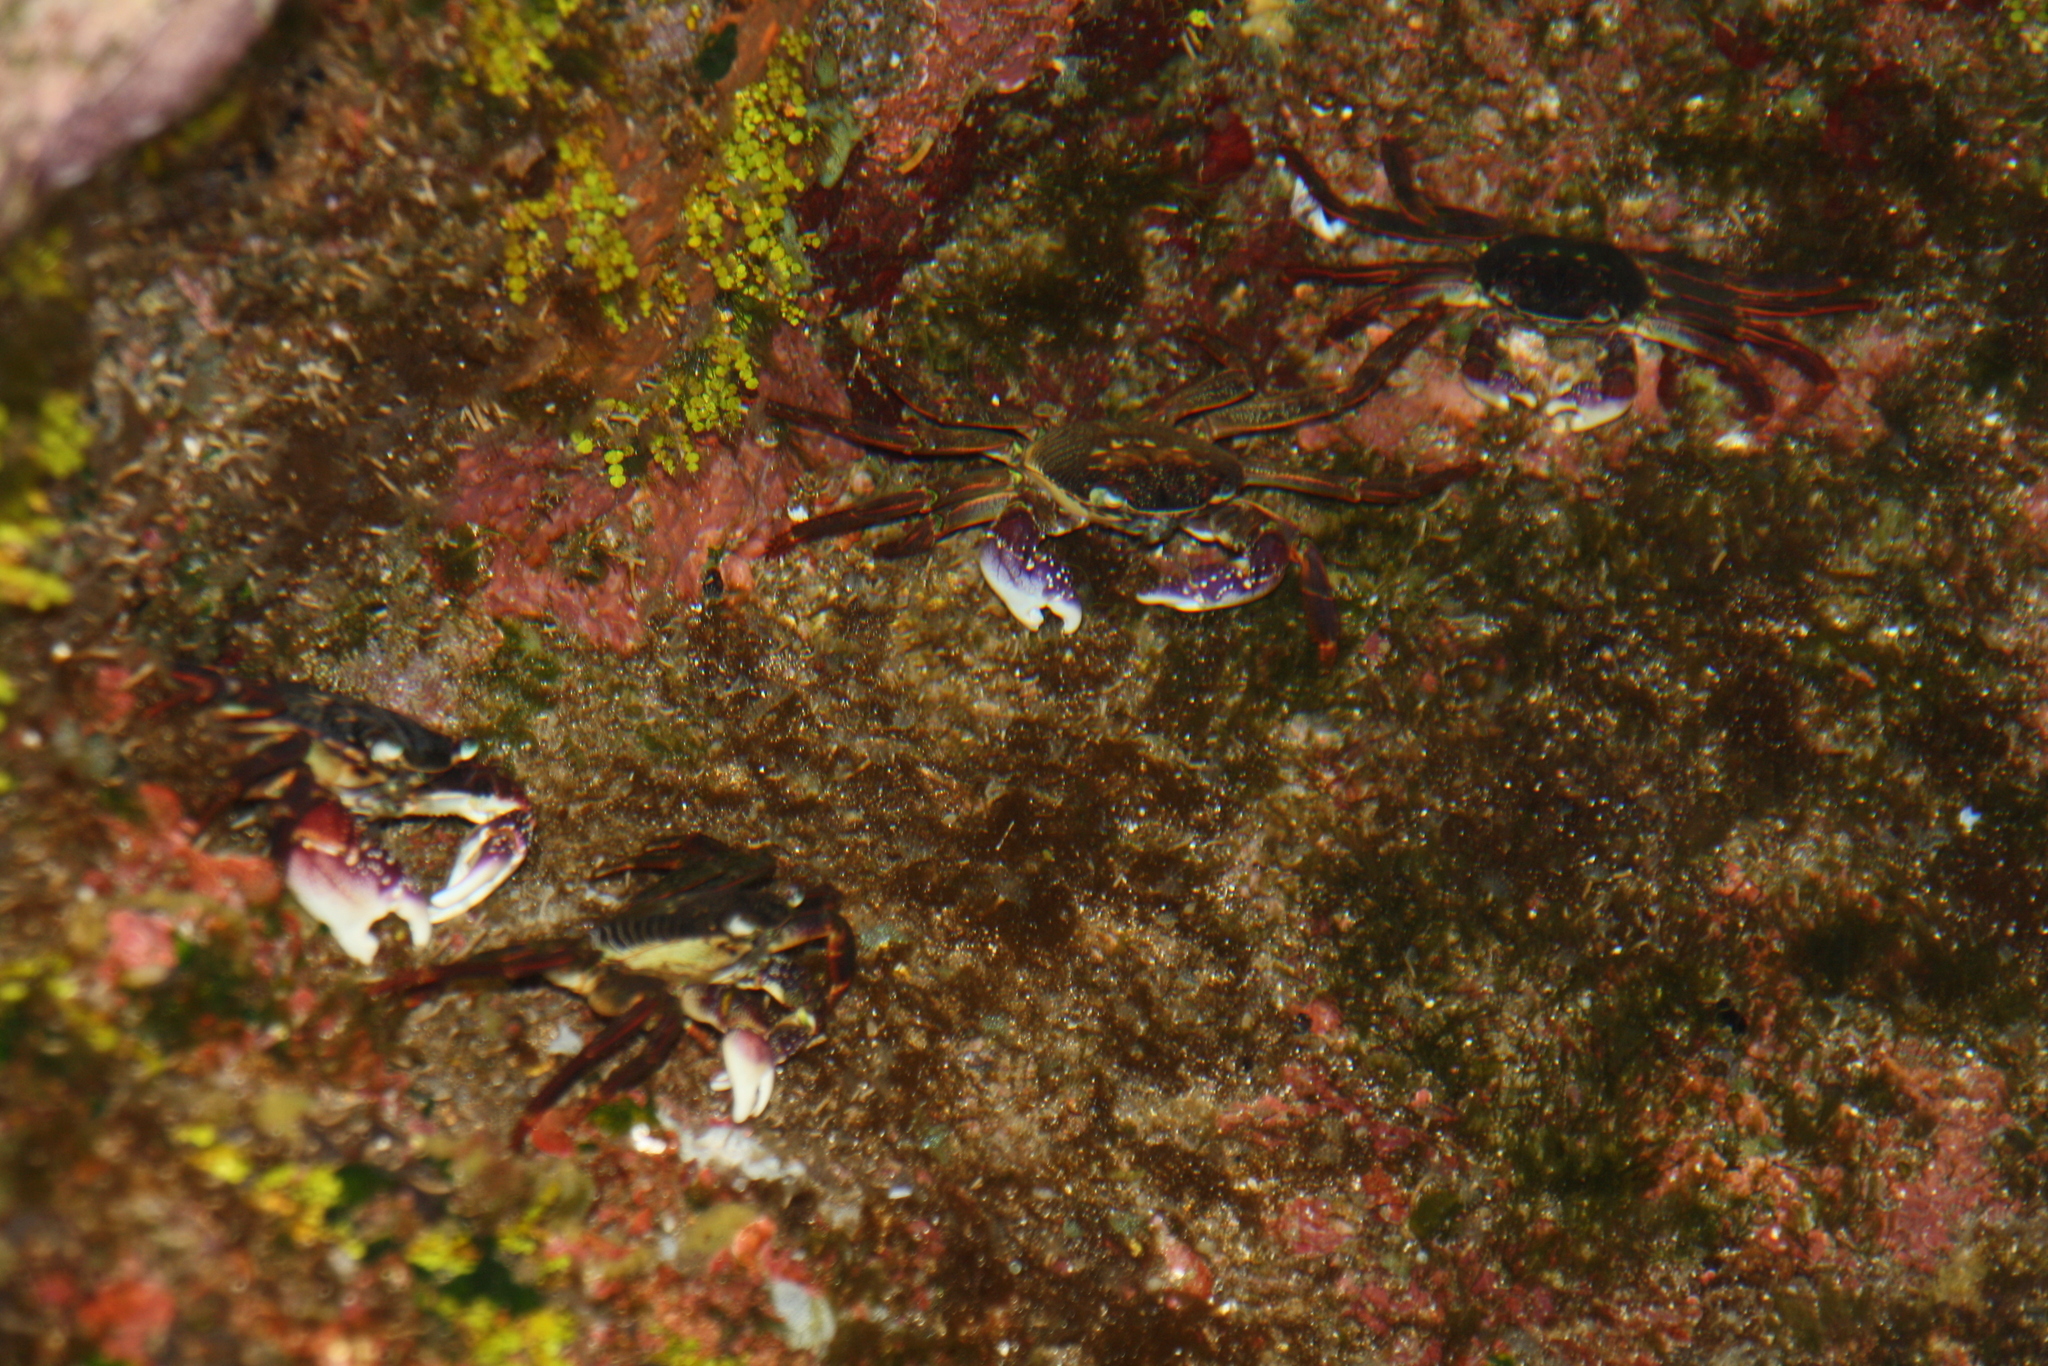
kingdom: Animalia
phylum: Arthropoda
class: Malacostraca
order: Decapoda
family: Grapsidae
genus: Leptograpsus
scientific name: Leptograpsus variegatus
